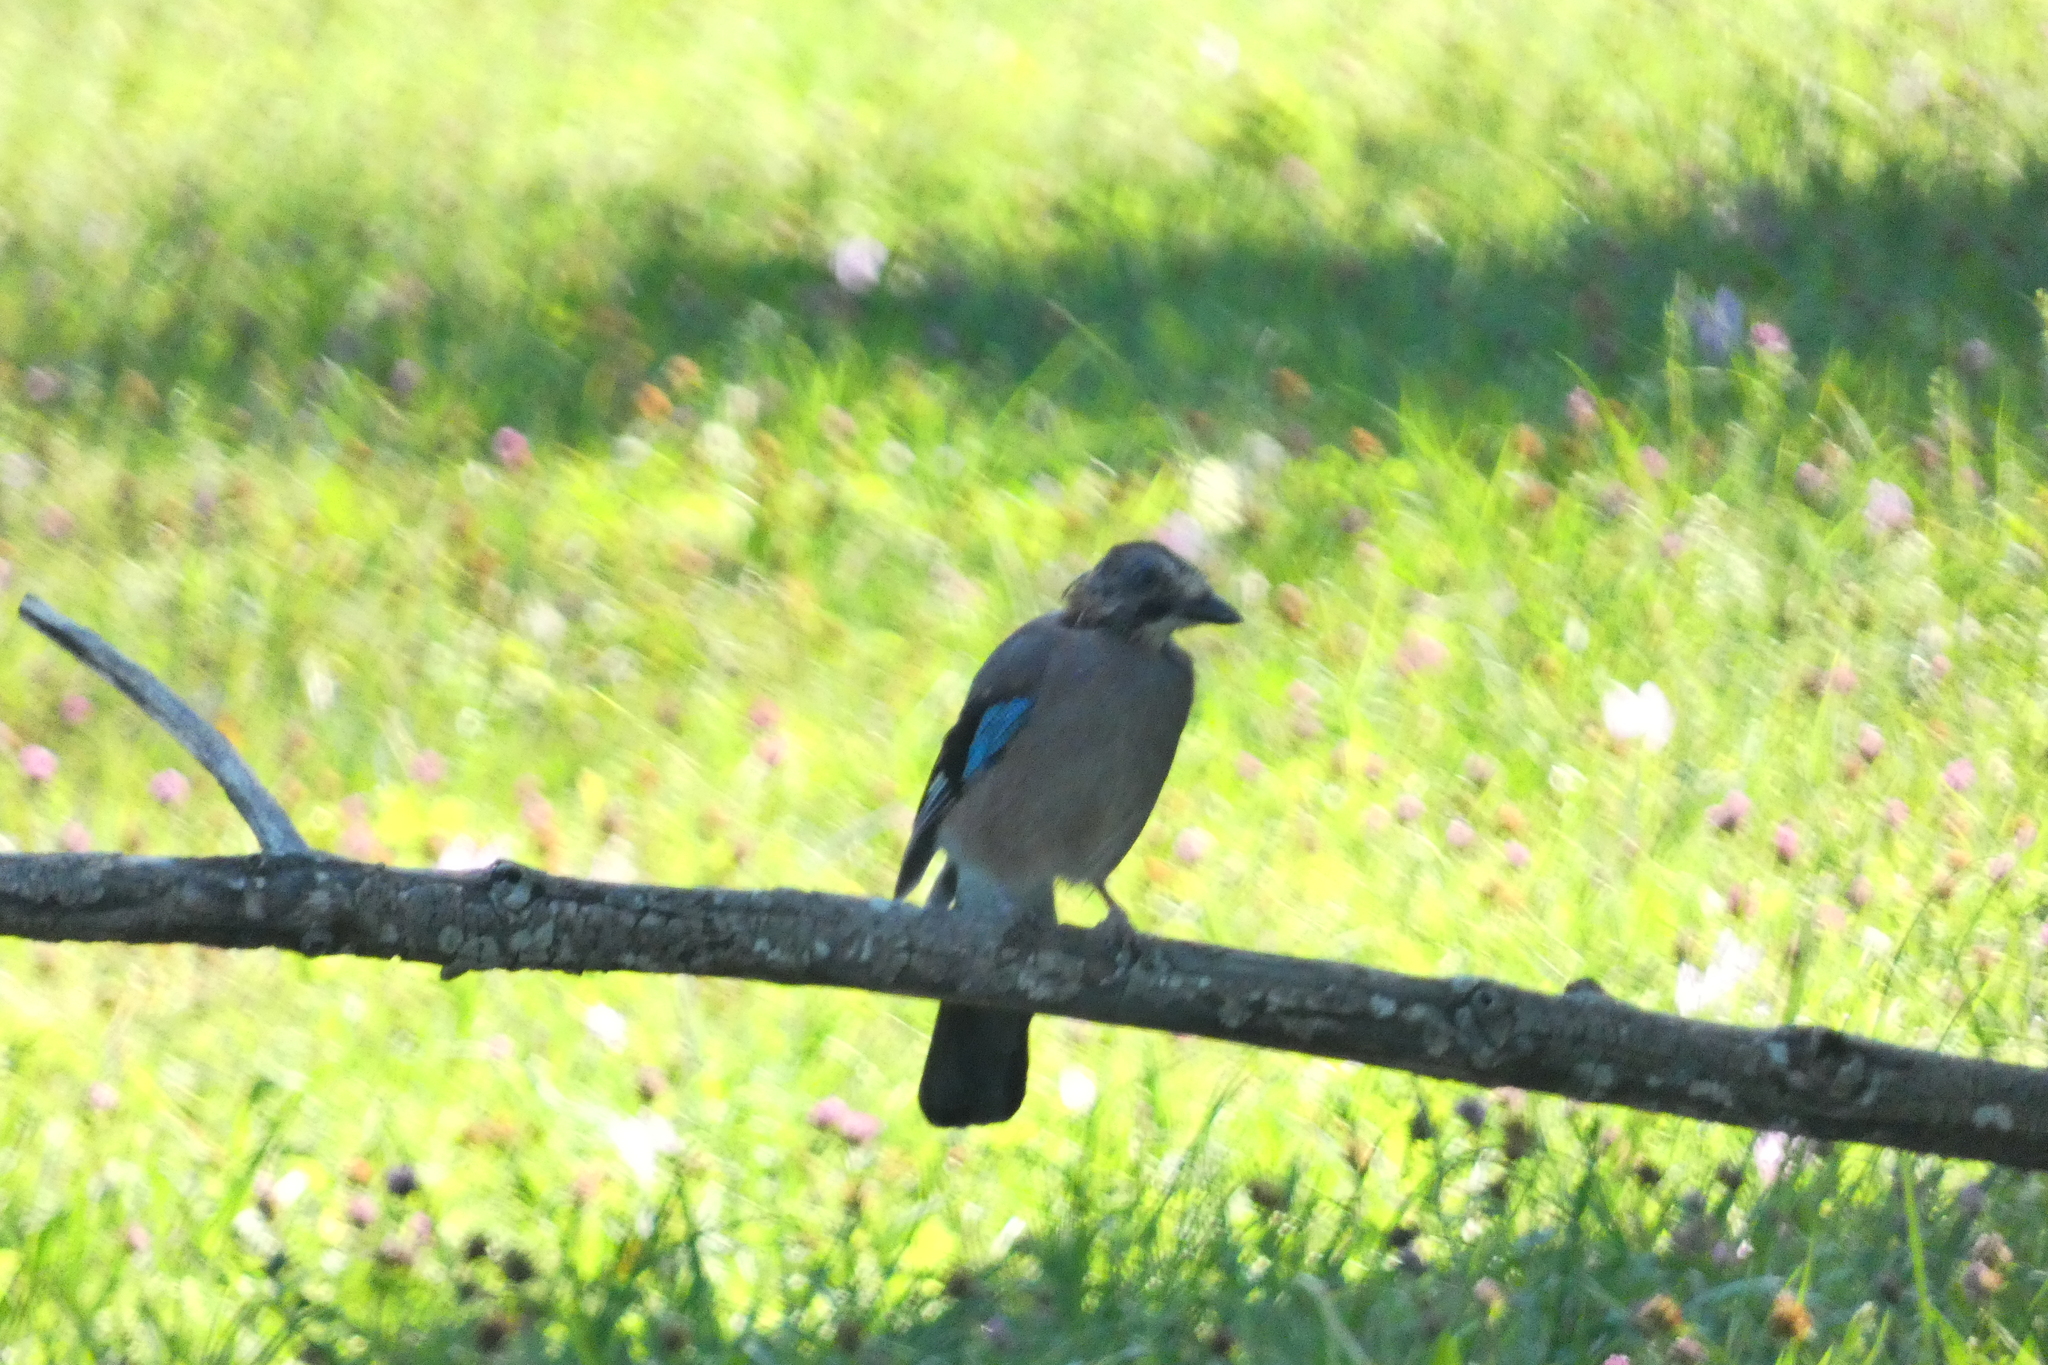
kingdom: Animalia
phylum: Chordata
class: Aves
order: Passeriformes
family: Corvidae
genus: Garrulus
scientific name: Garrulus glandarius
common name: Eurasian jay
